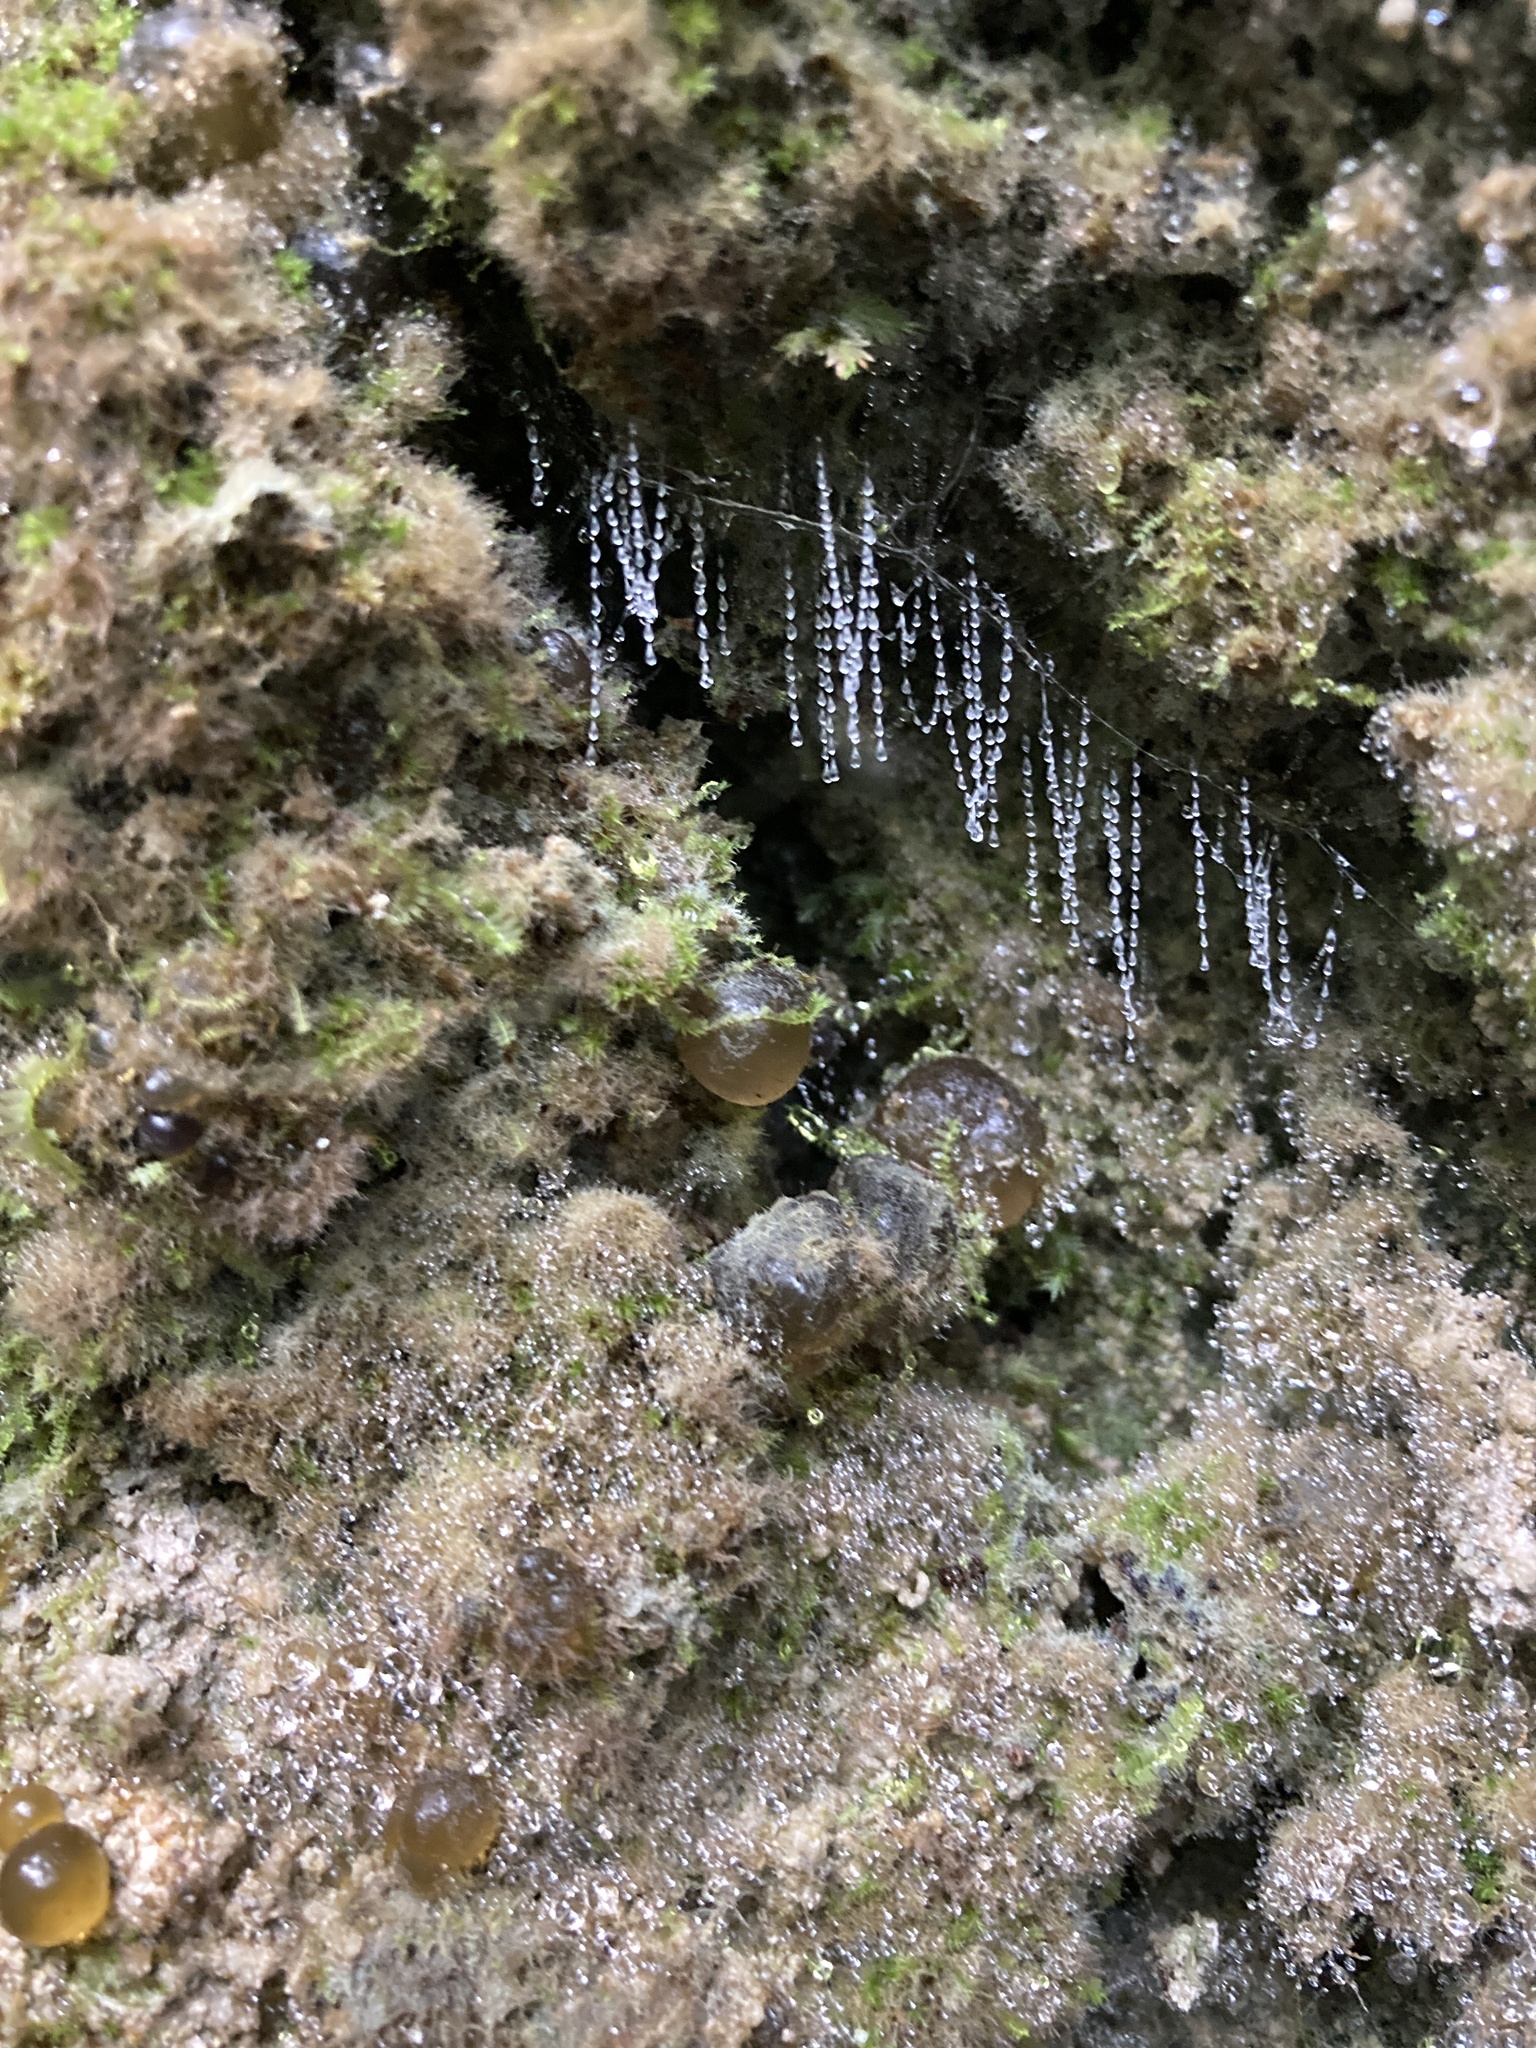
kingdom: Animalia
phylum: Arthropoda
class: Insecta
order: Diptera
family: Keroplatidae
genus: Arachnocampa
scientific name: Arachnocampa luminosa
